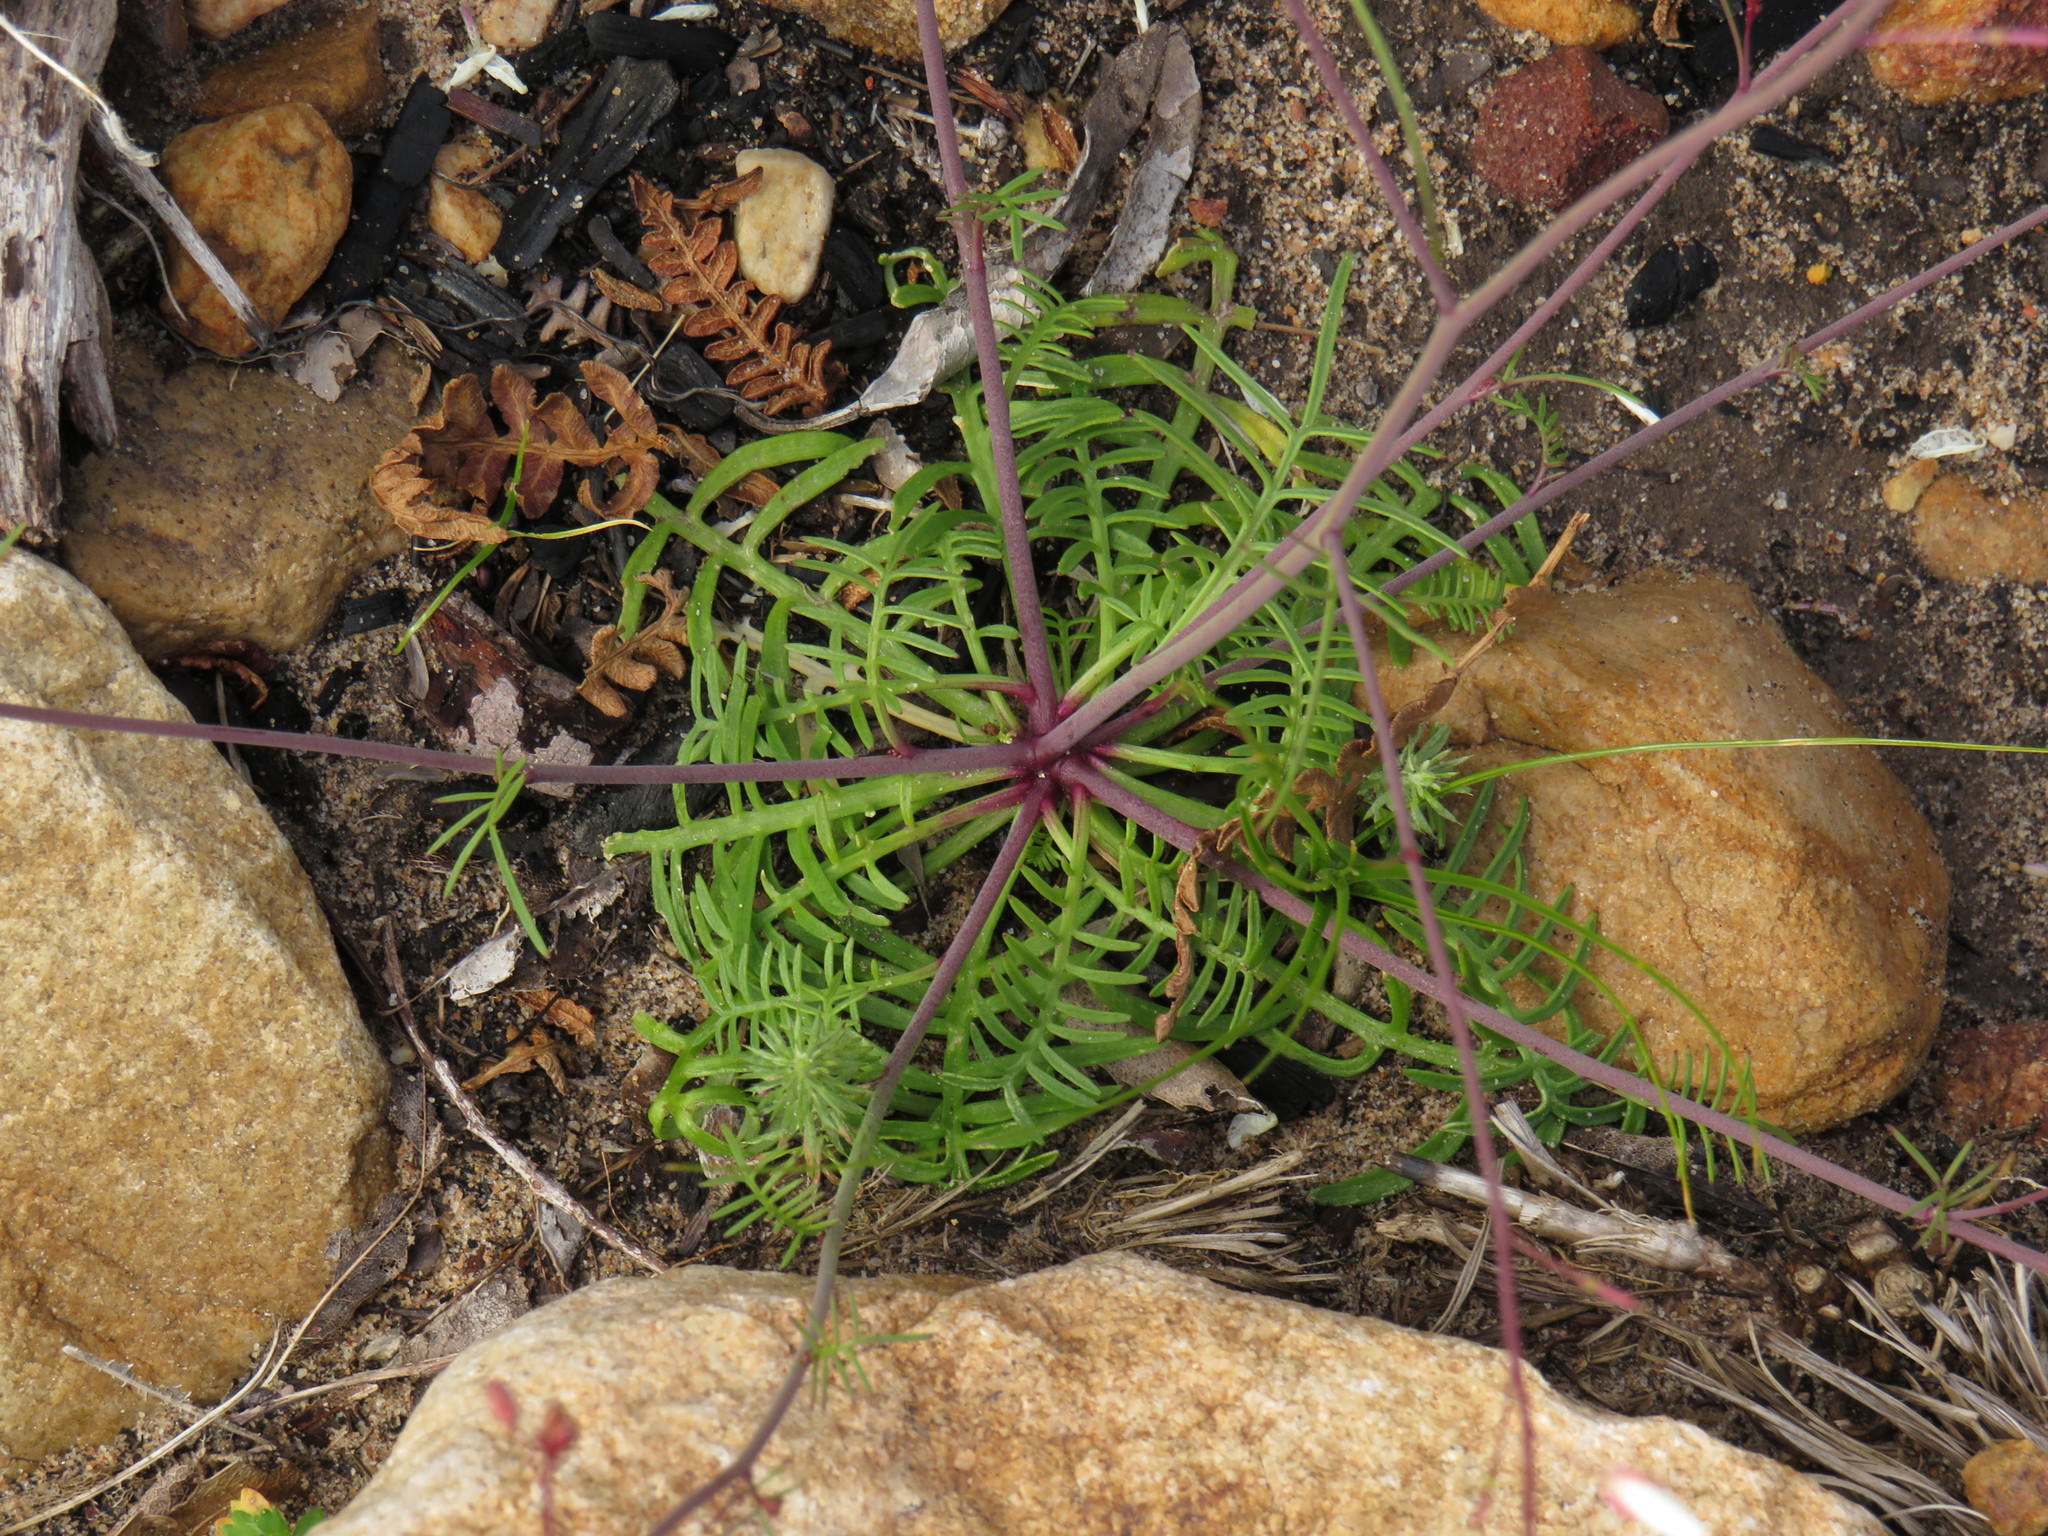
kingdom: Plantae
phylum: Tracheophyta
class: Magnoliopsida
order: Brassicales
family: Brassicaceae
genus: Heliophila
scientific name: Heliophila meyeri
